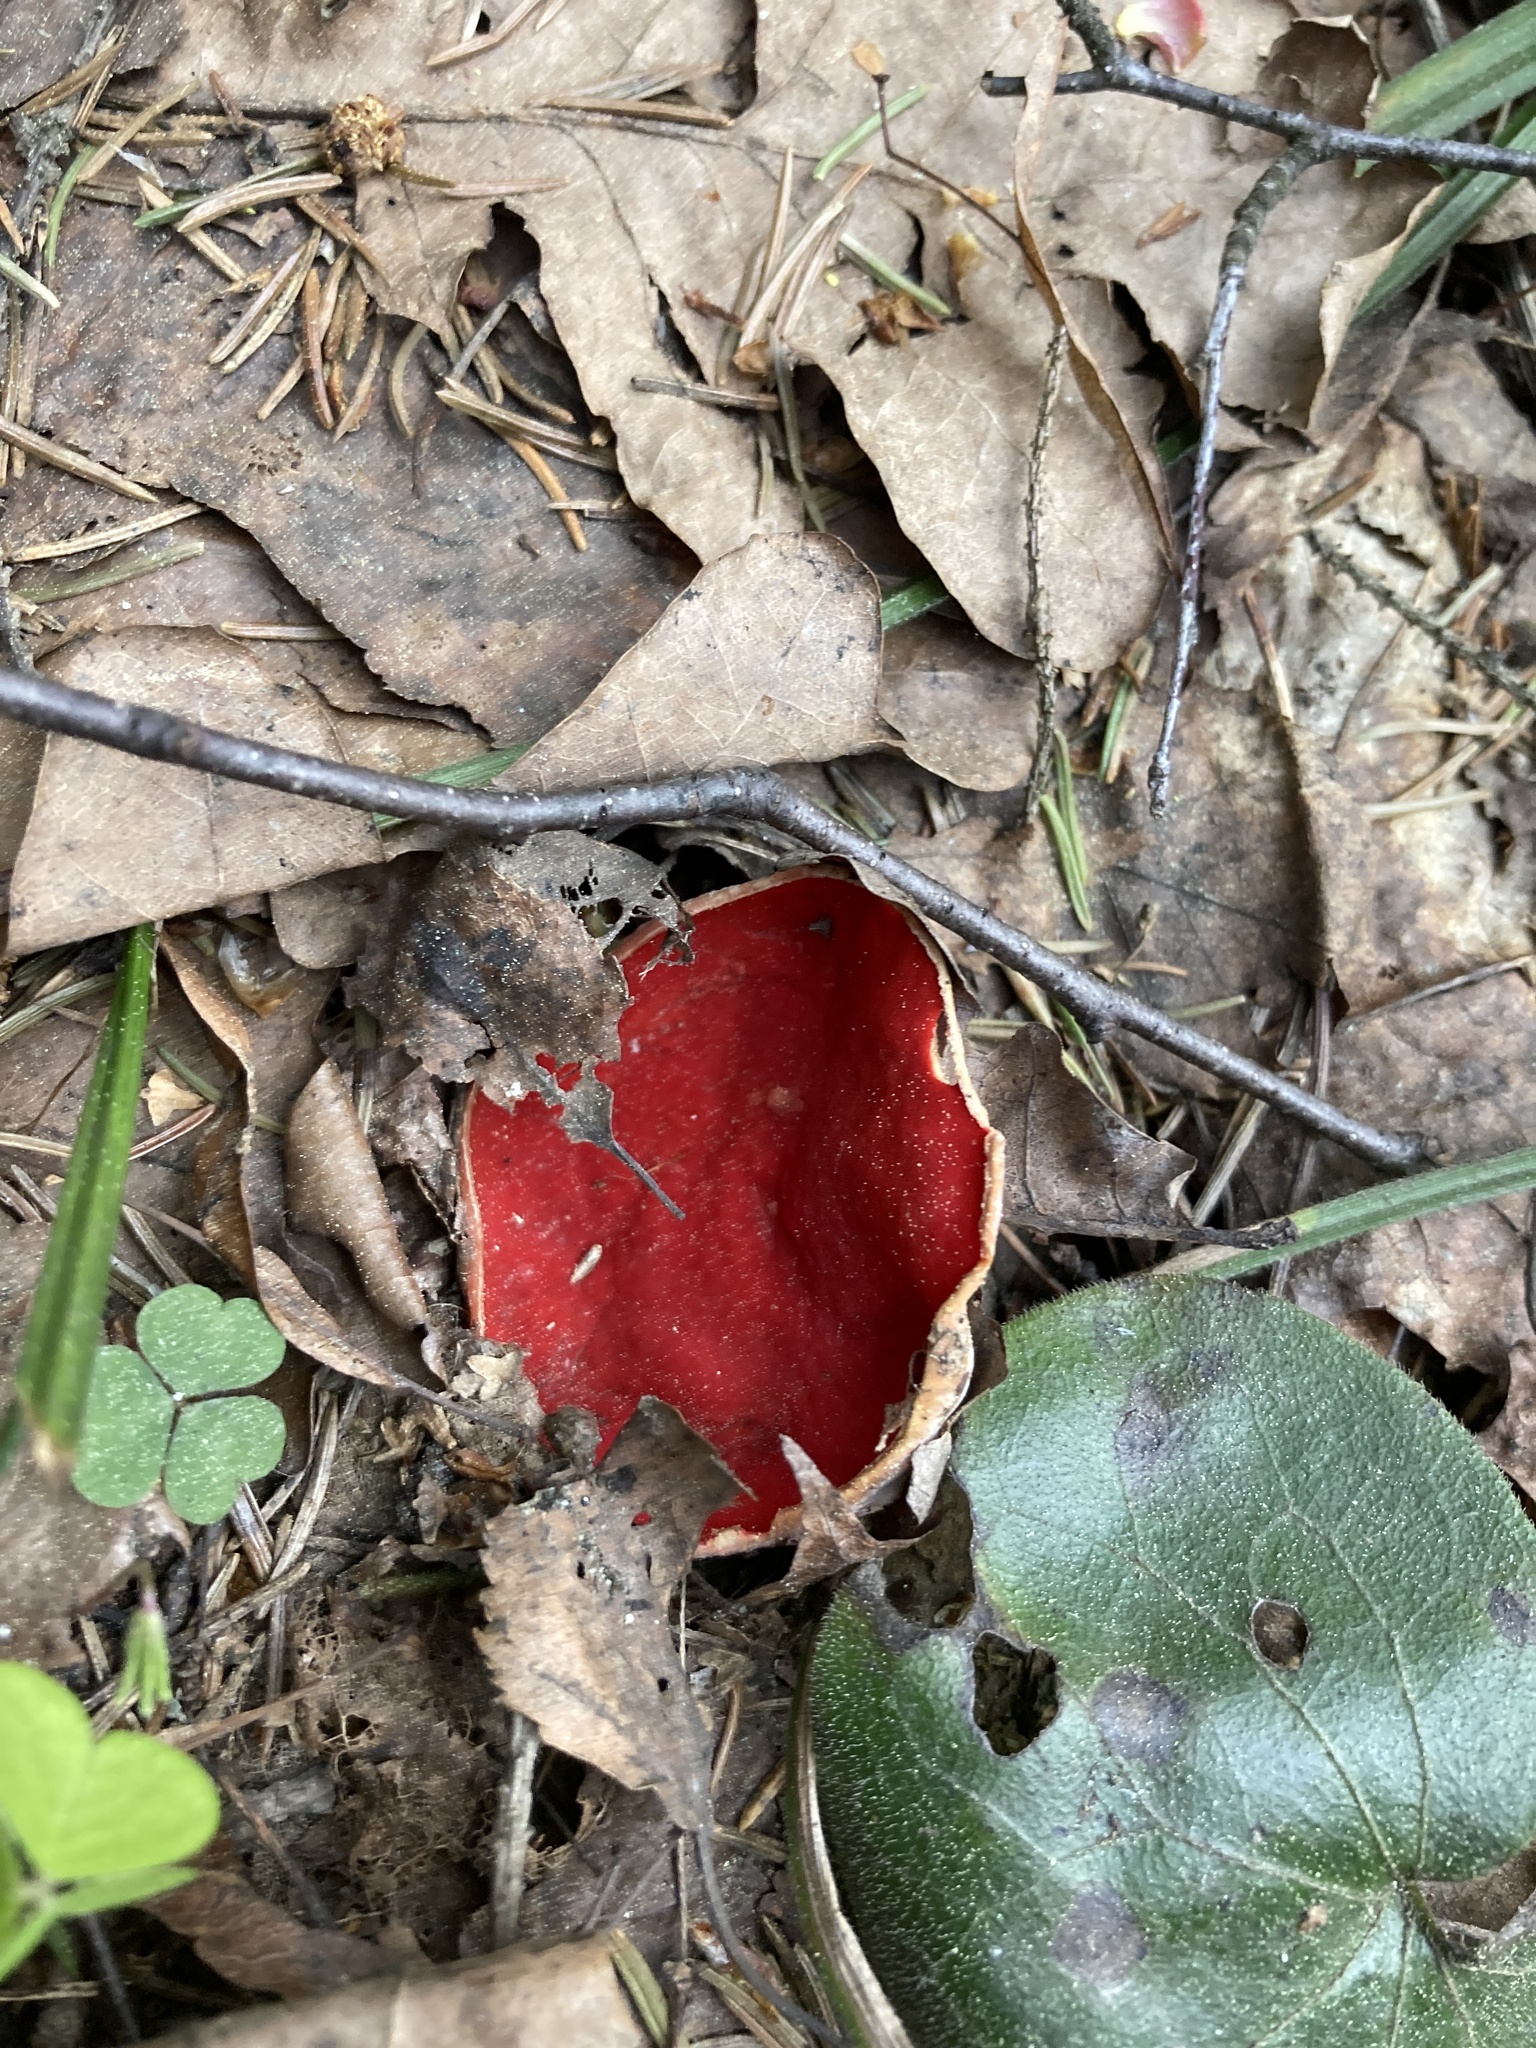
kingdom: Fungi
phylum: Ascomycota
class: Pezizomycetes
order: Pezizales
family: Sarcoscyphaceae
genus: Sarcoscypha
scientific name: Sarcoscypha austriaca
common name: Scarlet elfcup
